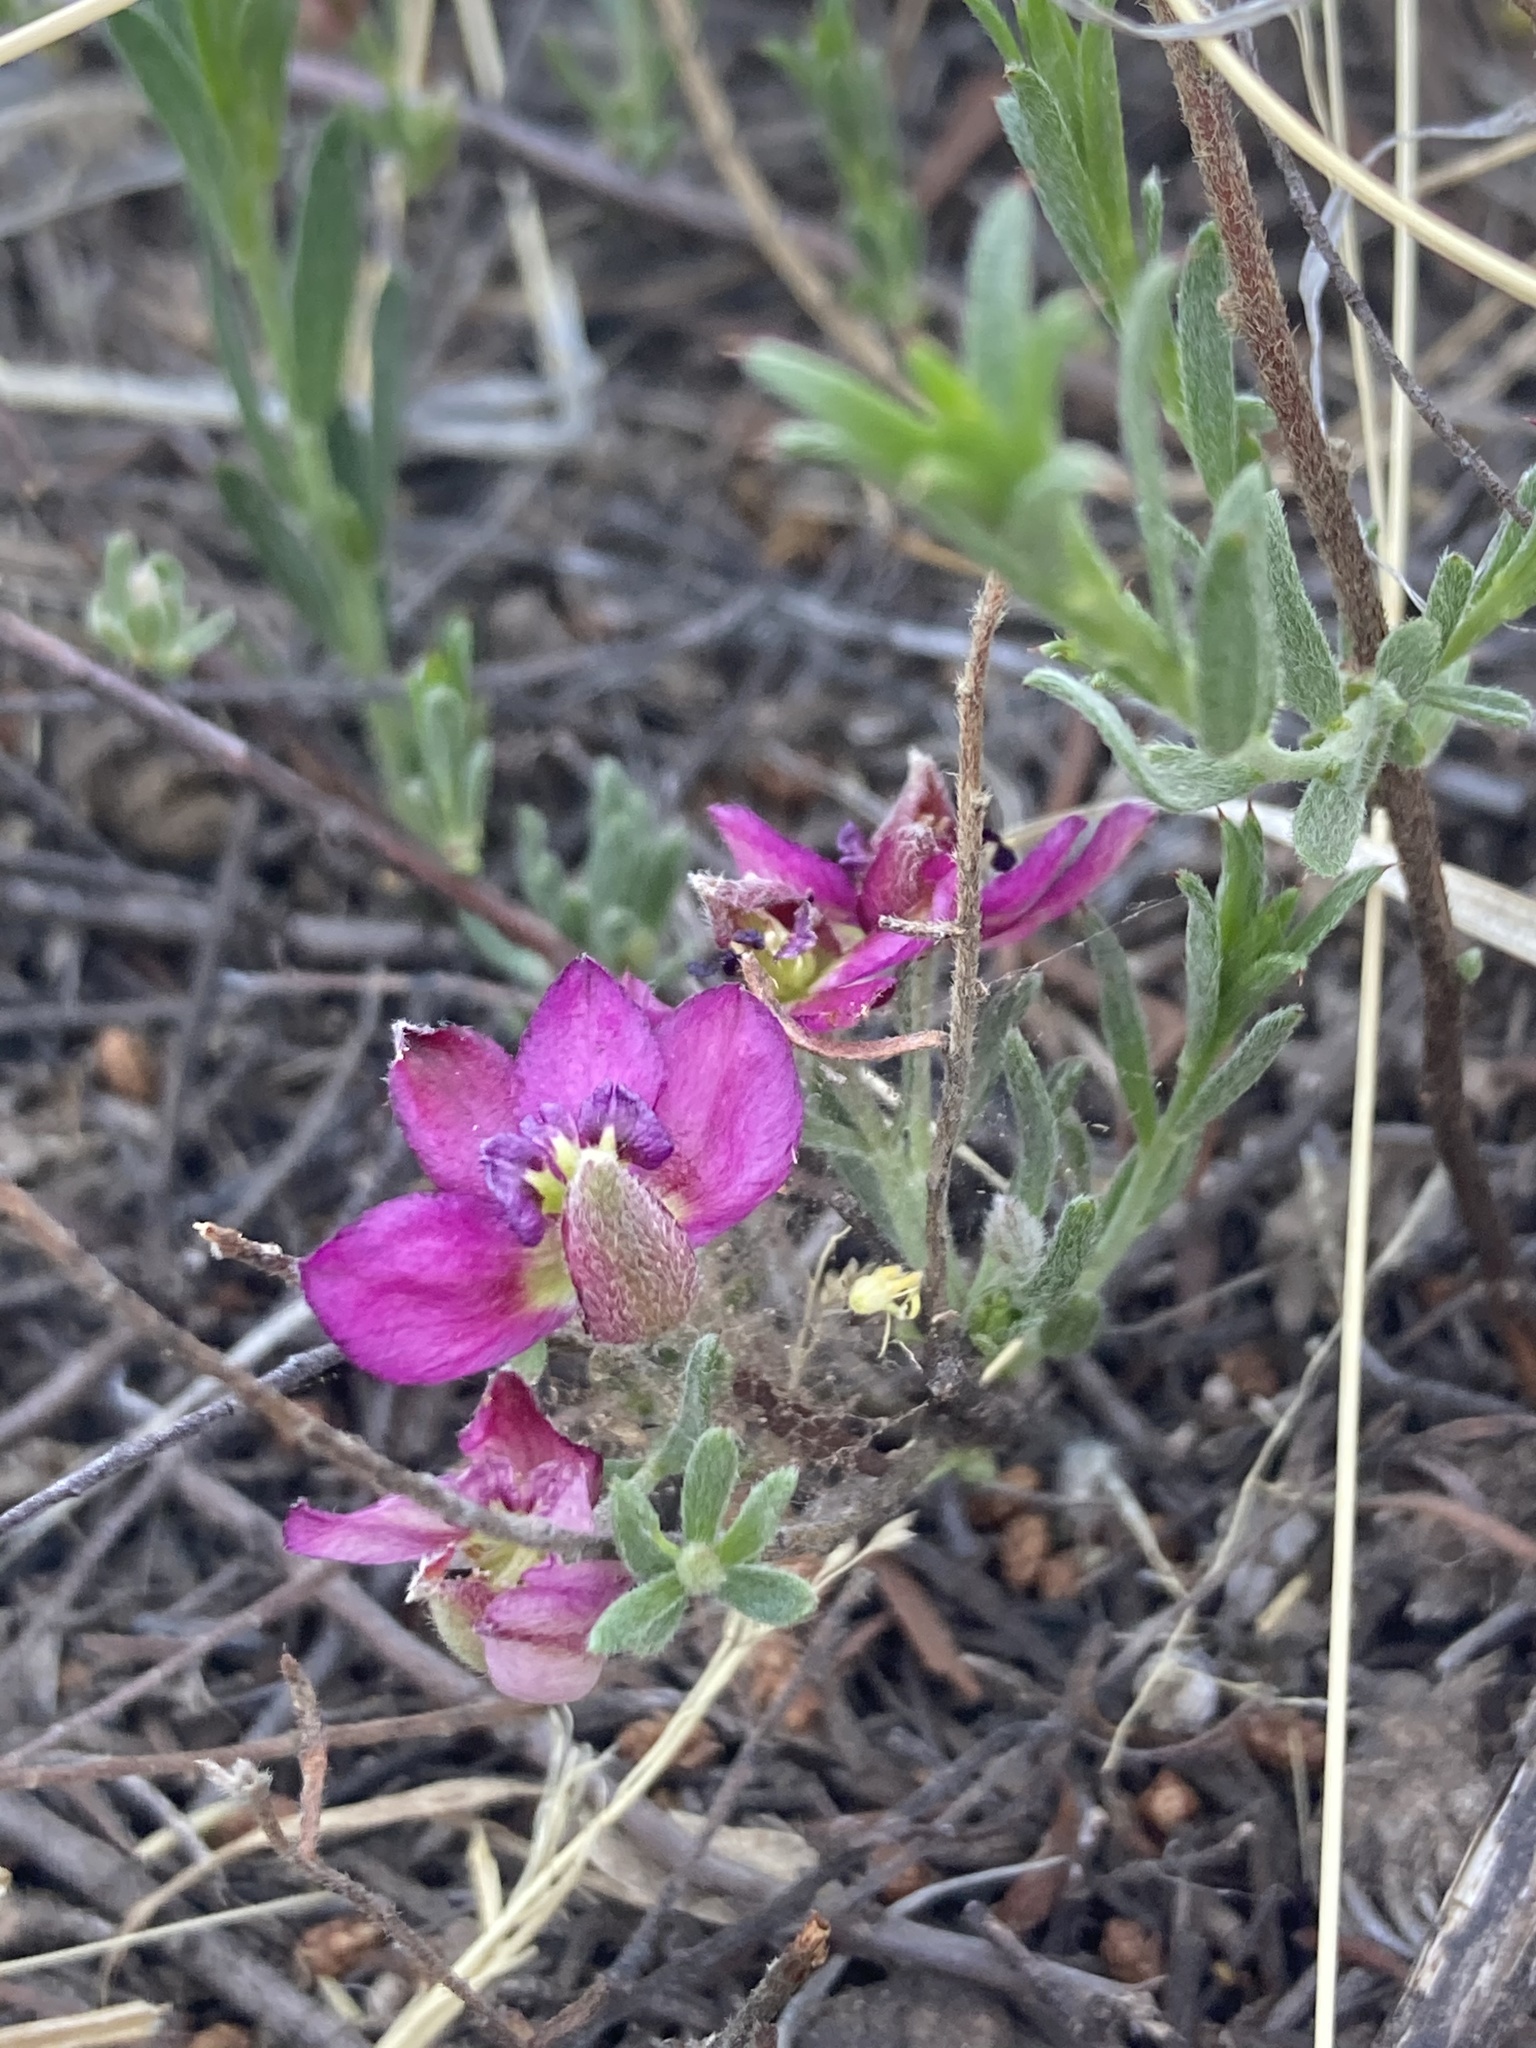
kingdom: Plantae
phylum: Tracheophyta
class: Magnoliopsida
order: Zygophyllales
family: Krameriaceae
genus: Krameria
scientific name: Krameria erecta
